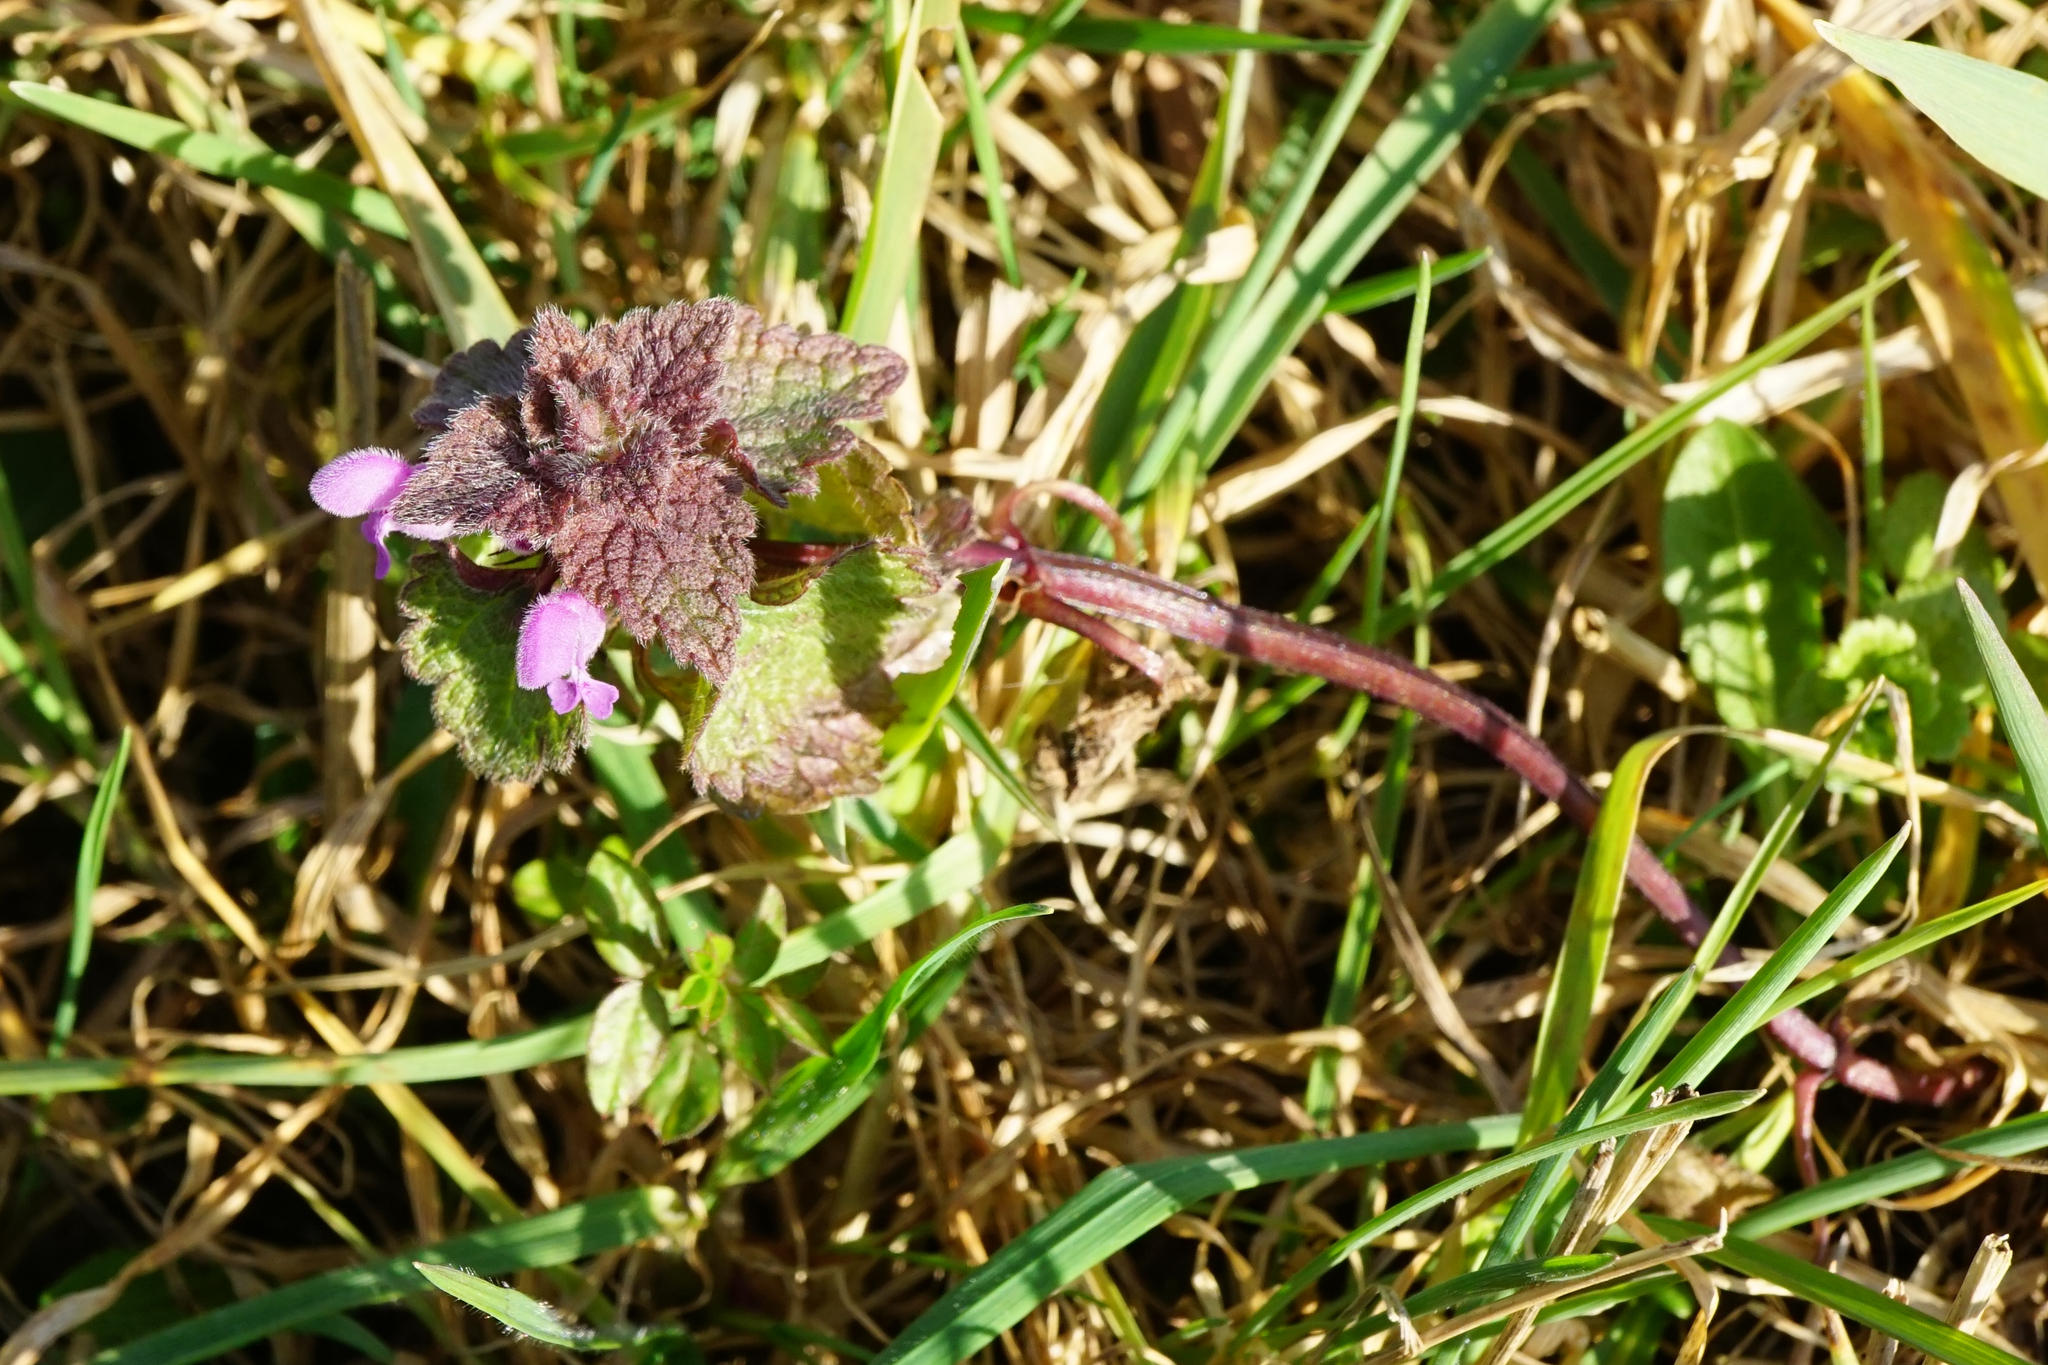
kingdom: Plantae
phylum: Tracheophyta
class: Magnoliopsida
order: Lamiales
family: Lamiaceae
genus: Lamium
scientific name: Lamium purpureum
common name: Red dead-nettle
